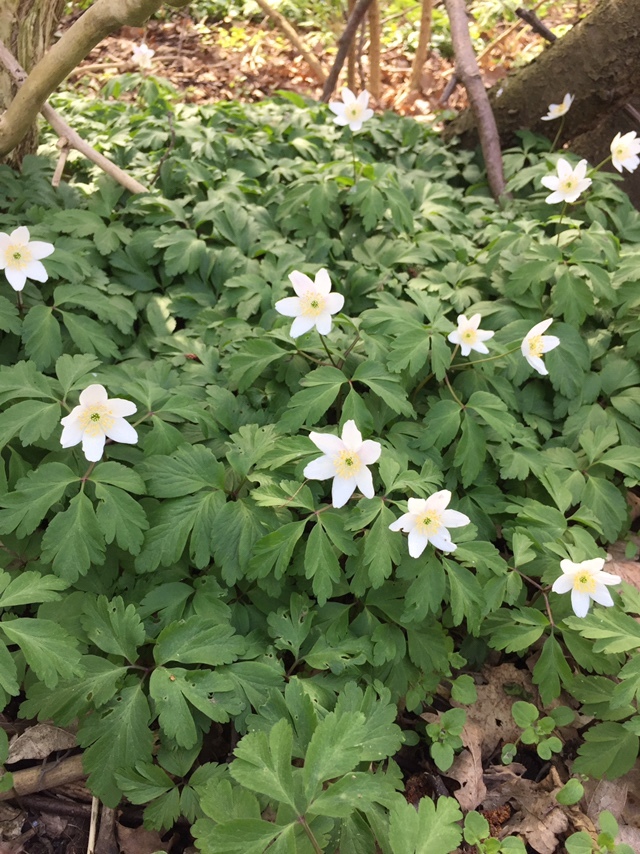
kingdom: Plantae
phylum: Tracheophyta
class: Magnoliopsida
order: Ranunculales
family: Ranunculaceae
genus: Anemone
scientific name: Anemone nemorosa
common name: Wood anemone
